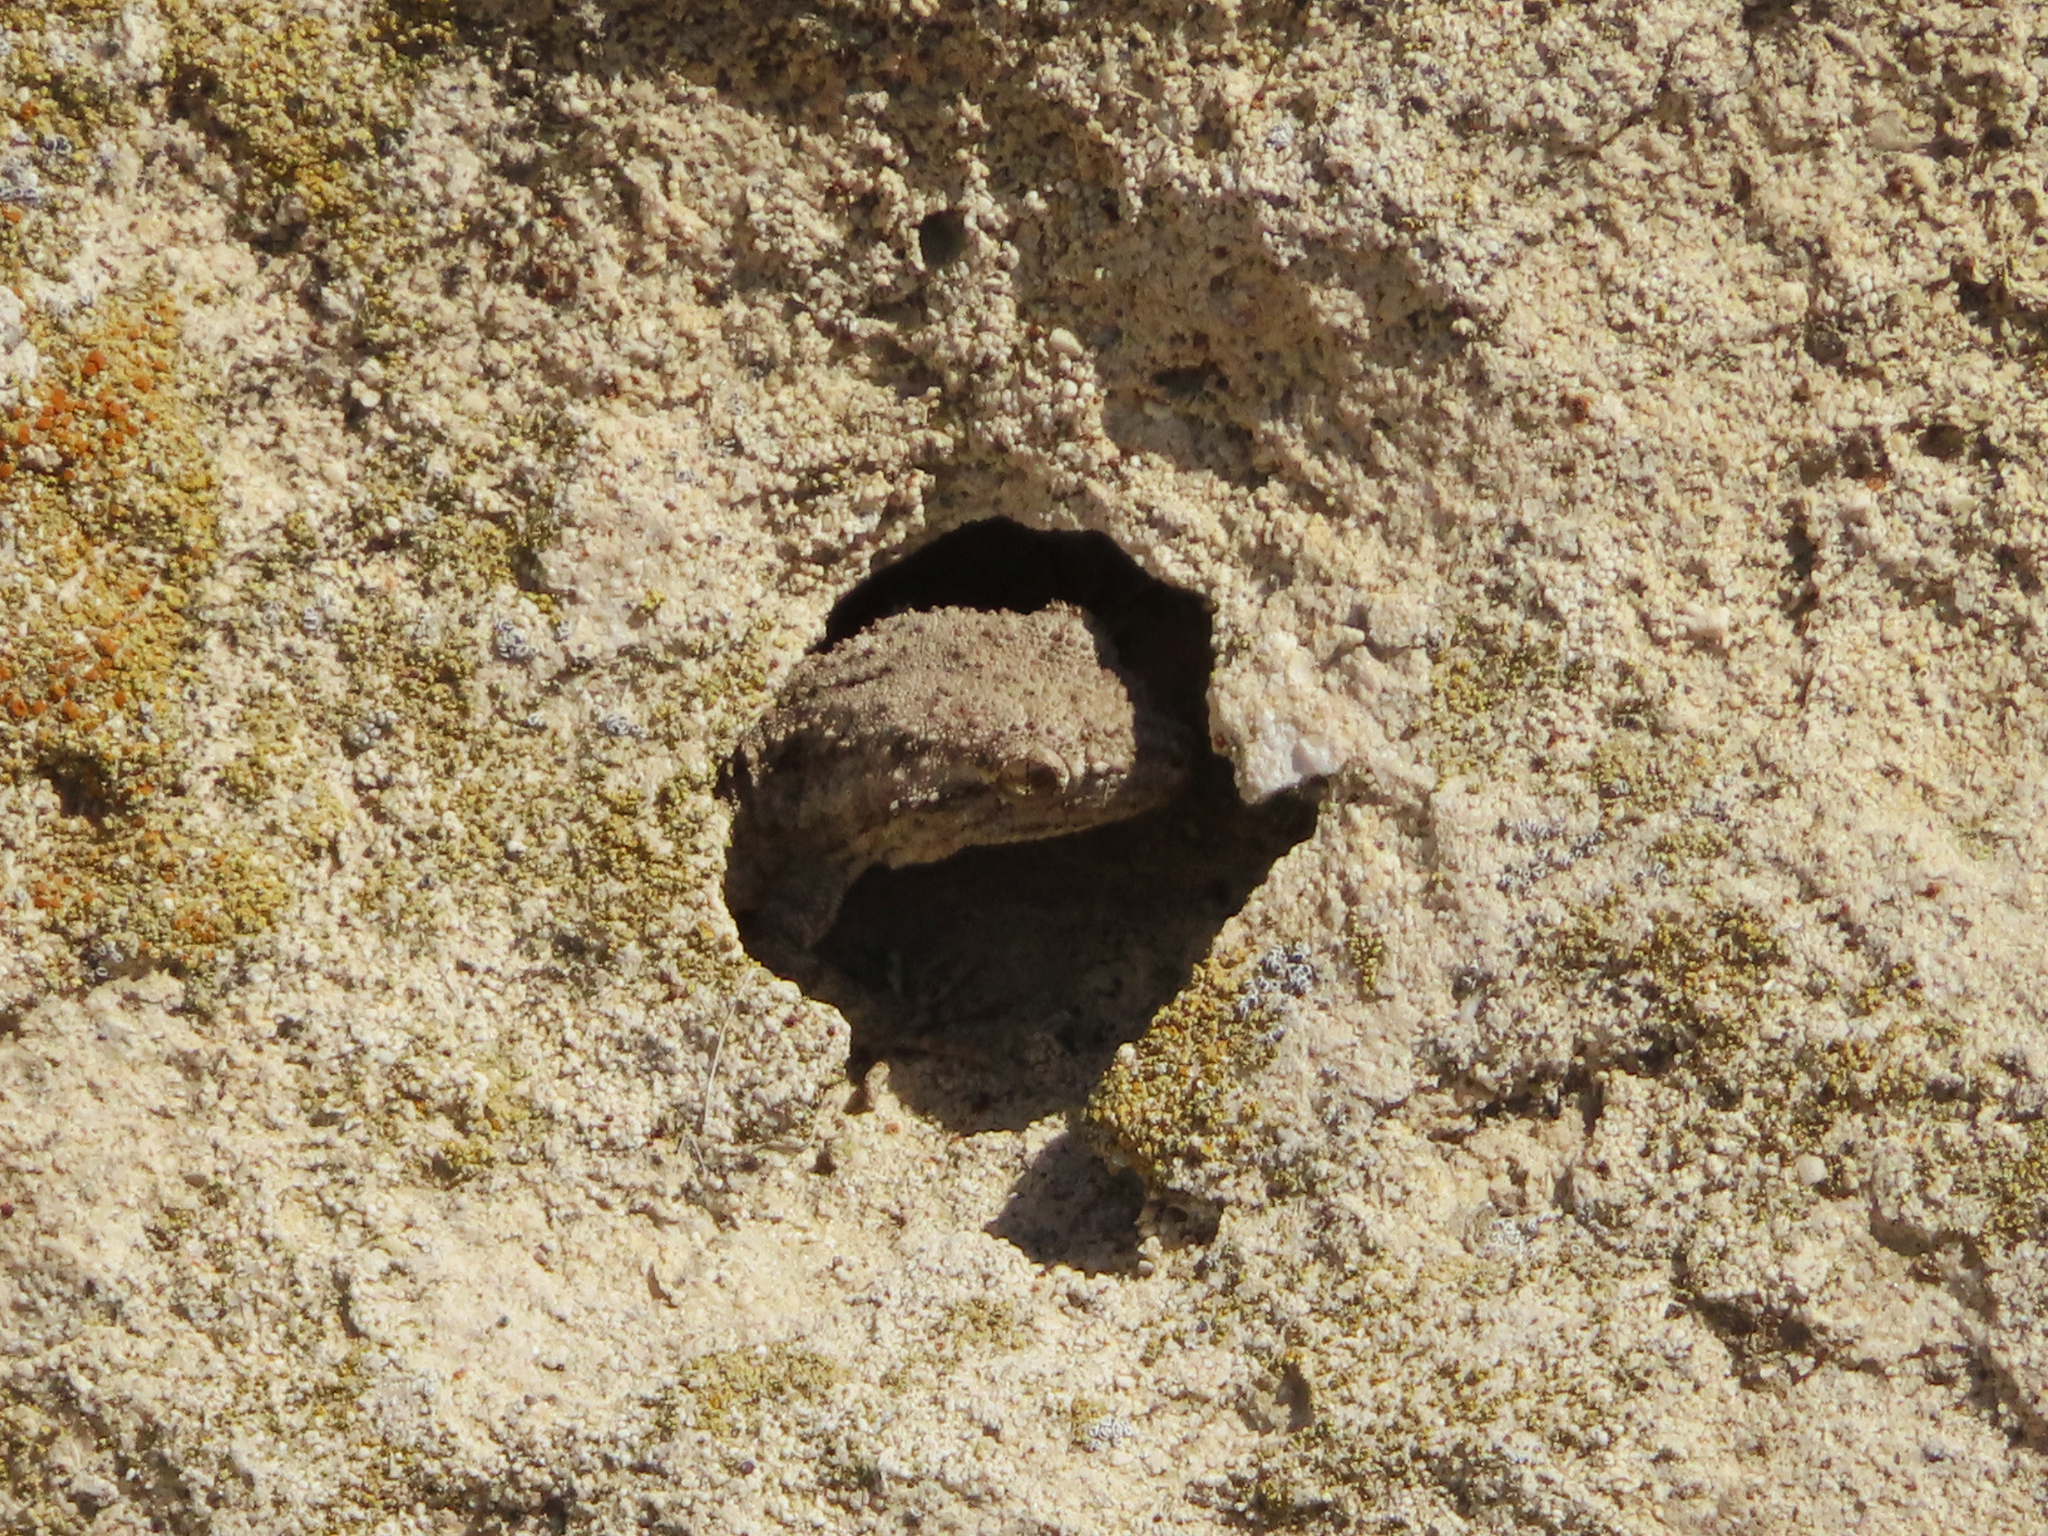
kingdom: Animalia
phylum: Chordata
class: Squamata
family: Gekkonidae
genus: Mediodactylus
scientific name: Mediodactylus russowii
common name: Grey thin-toed gecko
